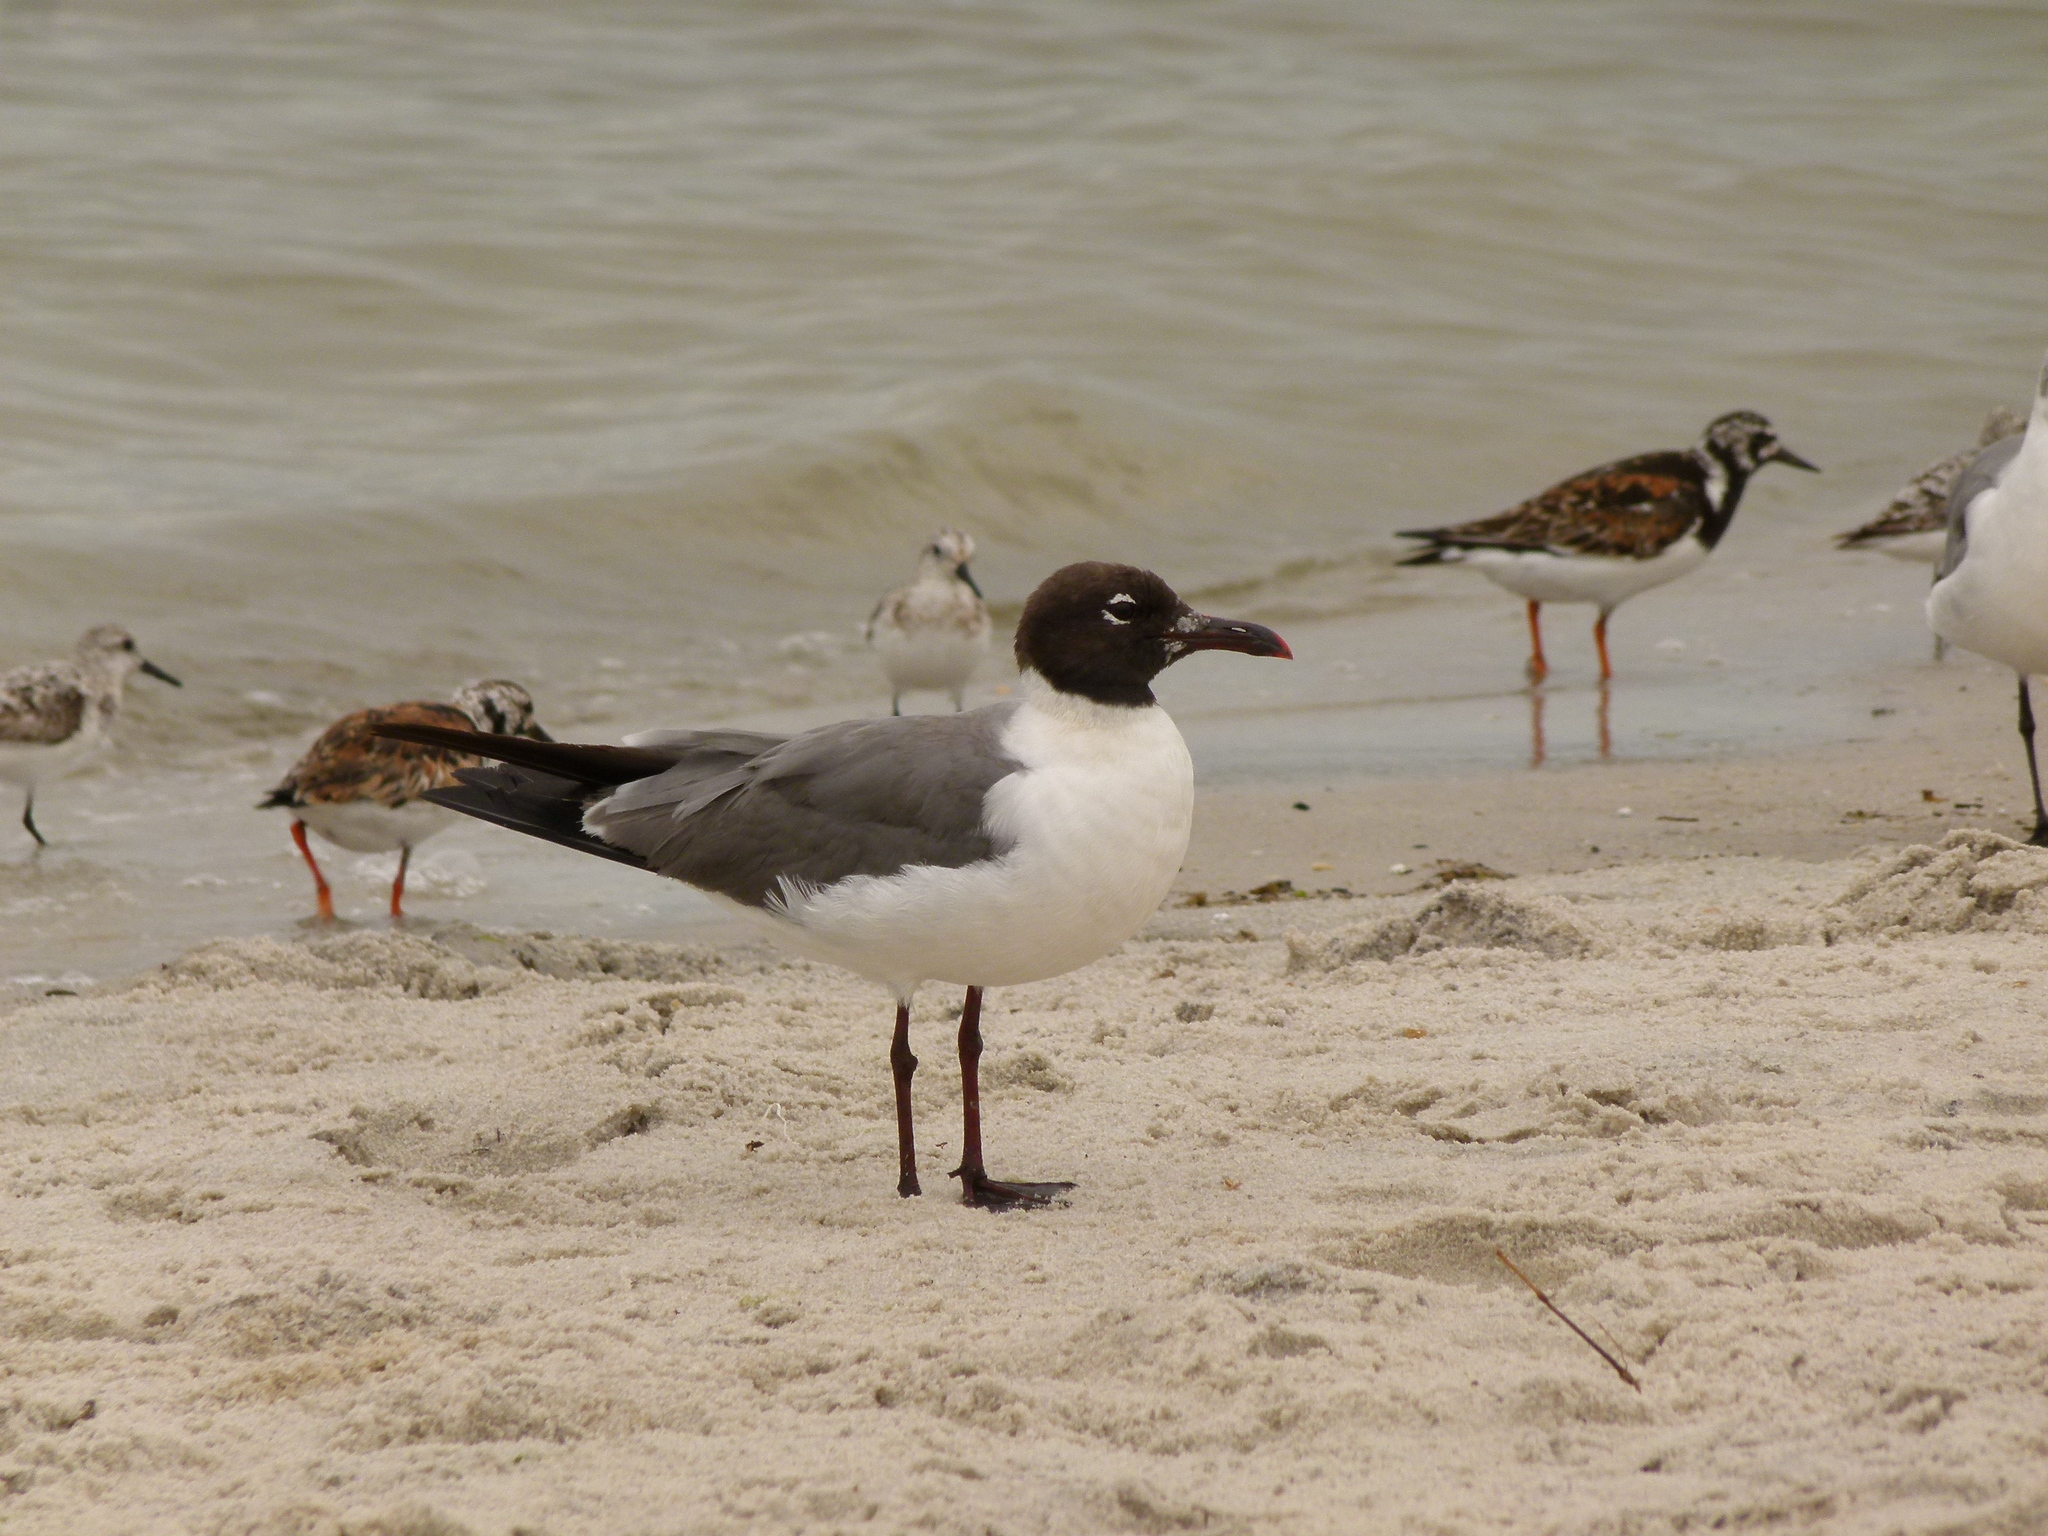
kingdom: Animalia
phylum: Chordata
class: Aves
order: Charadriiformes
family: Laridae
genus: Leucophaeus
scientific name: Leucophaeus atricilla
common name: Laughing gull
